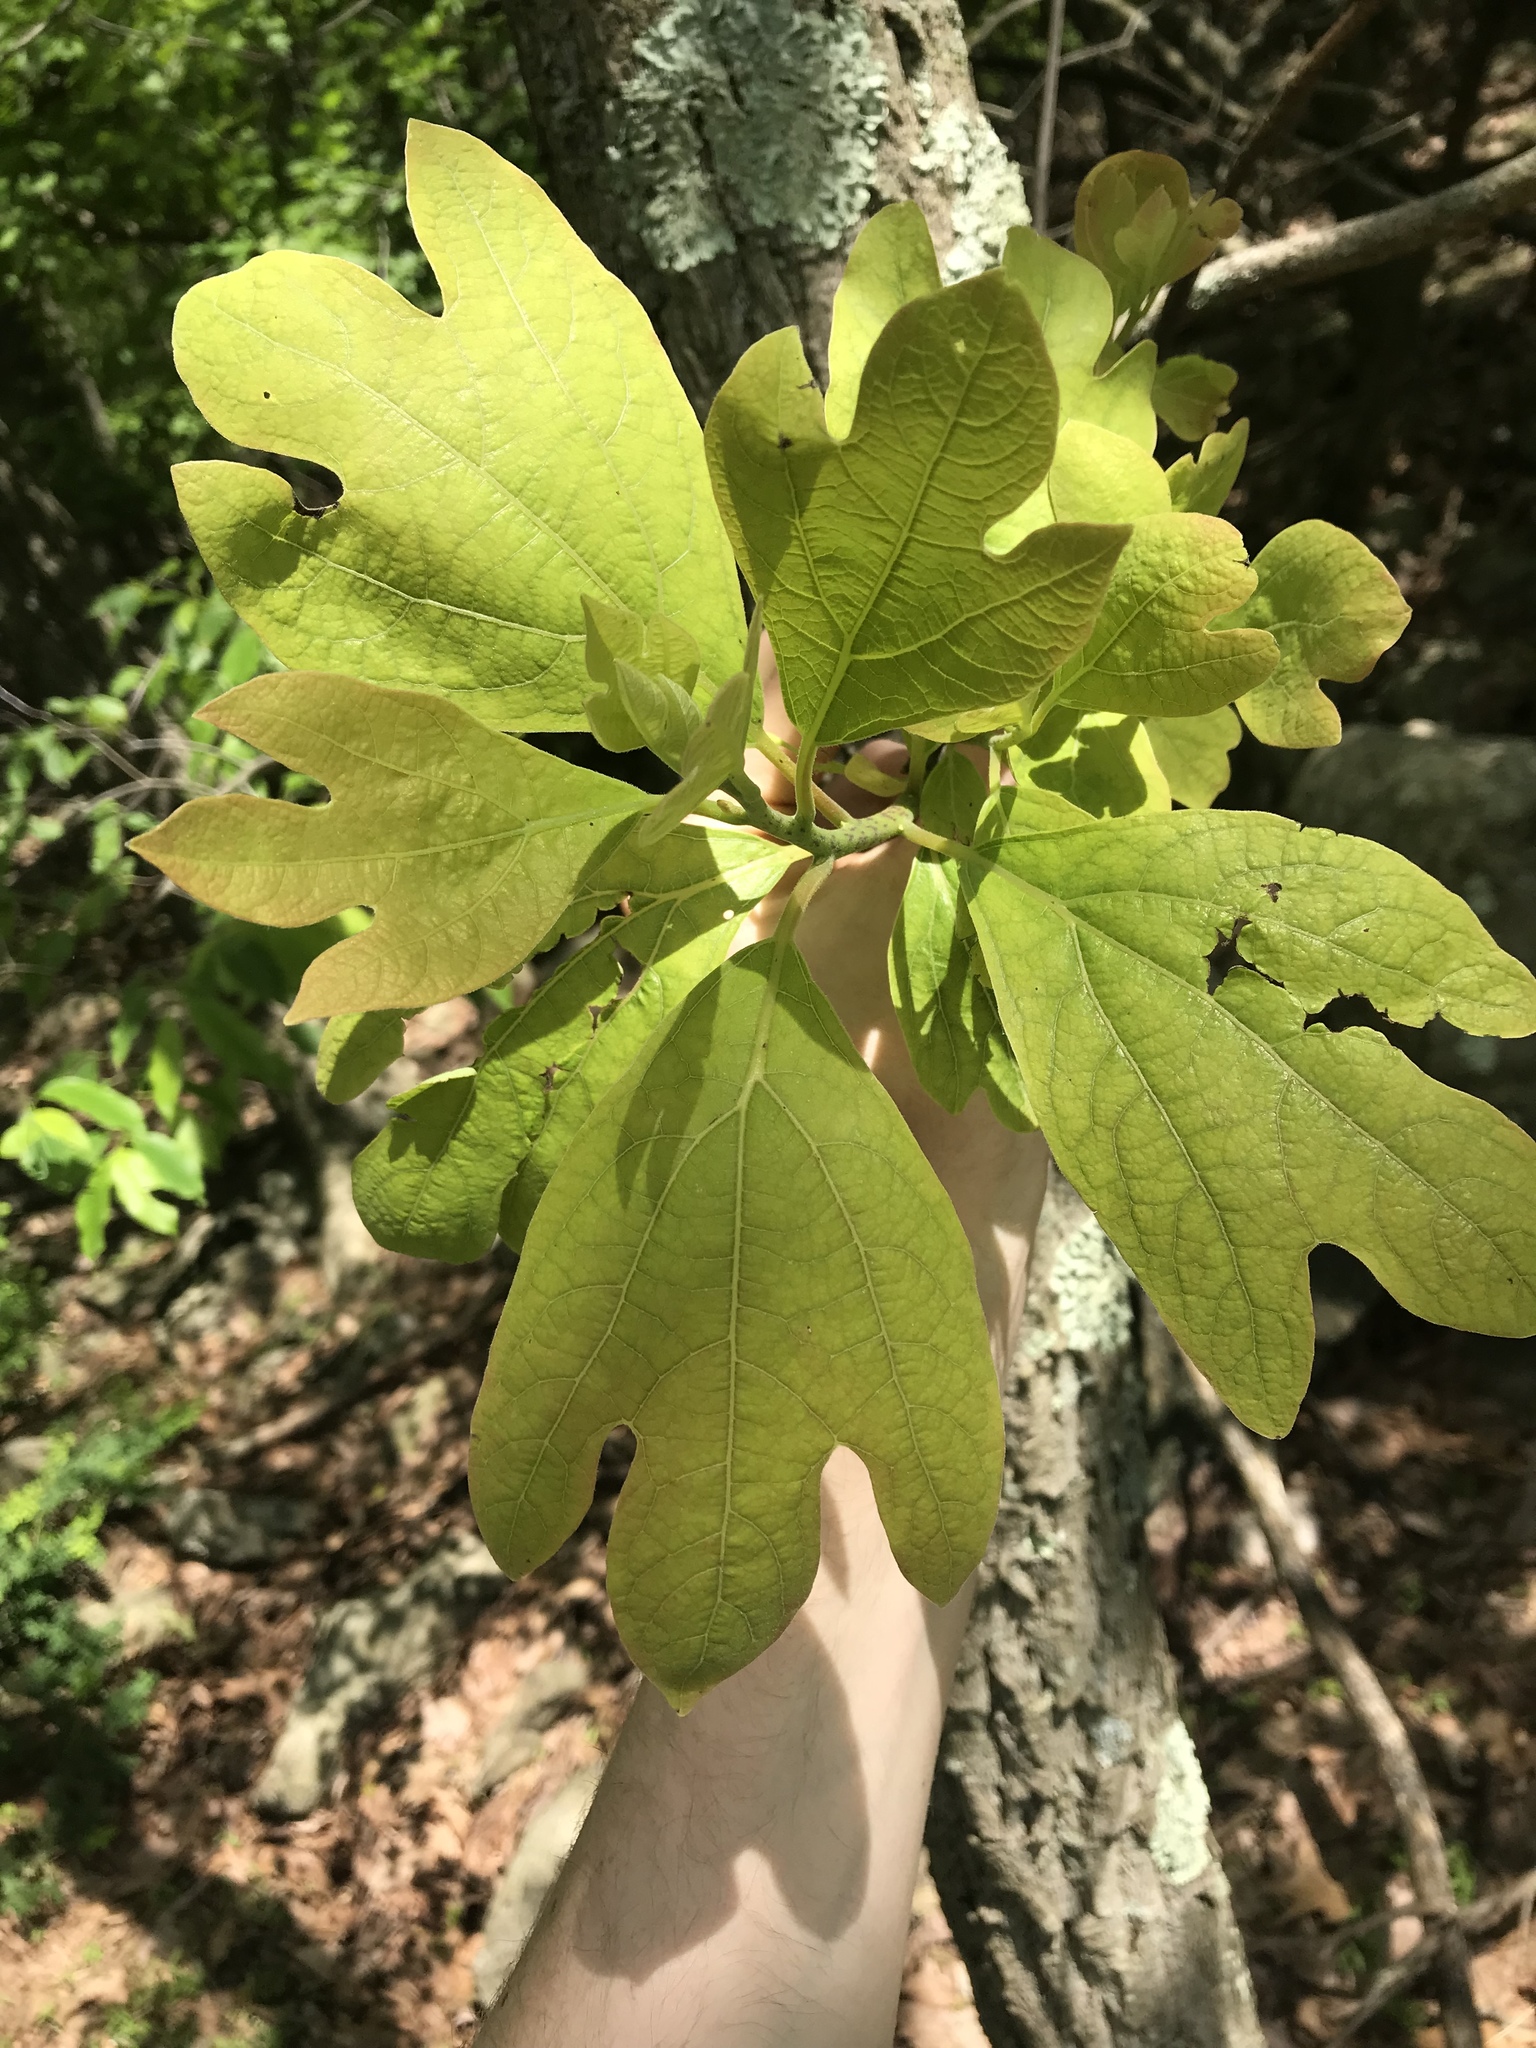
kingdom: Plantae
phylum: Tracheophyta
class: Magnoliopsida
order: Laurales
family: Lauraceae
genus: Sassafras
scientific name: Sassafras albidum
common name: Sassafras
